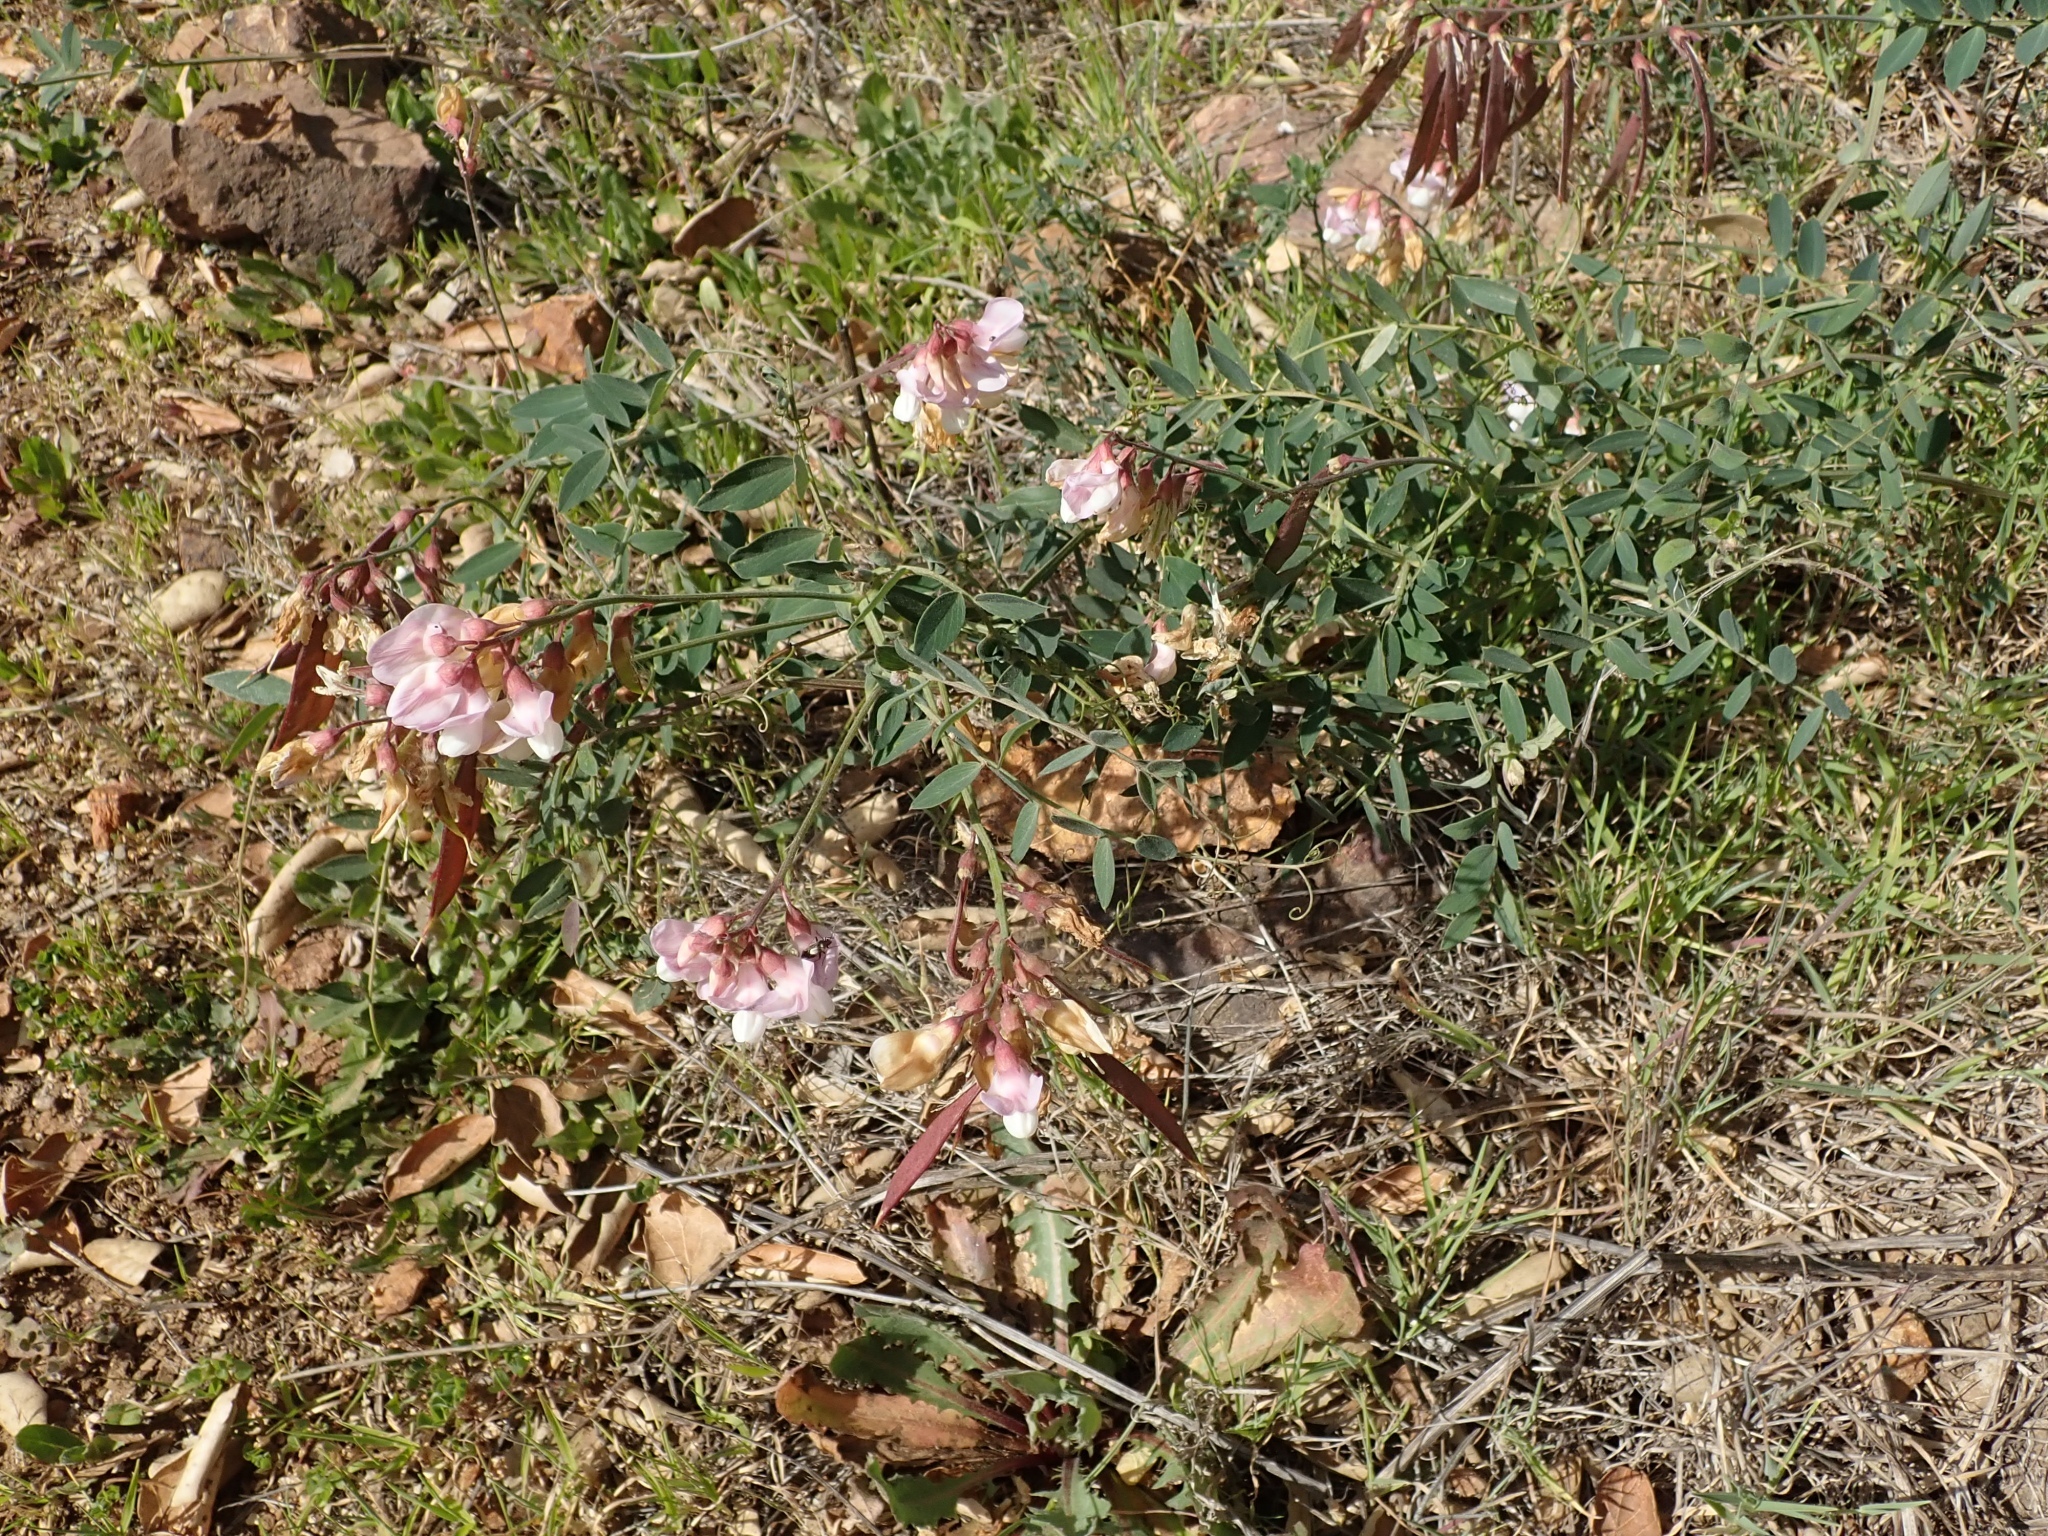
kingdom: Plantae
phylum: Tracheophyta
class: Magnoliopsida
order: Fabales
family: Fabaceae
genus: Lathyrus
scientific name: Lathyrus vestitus
